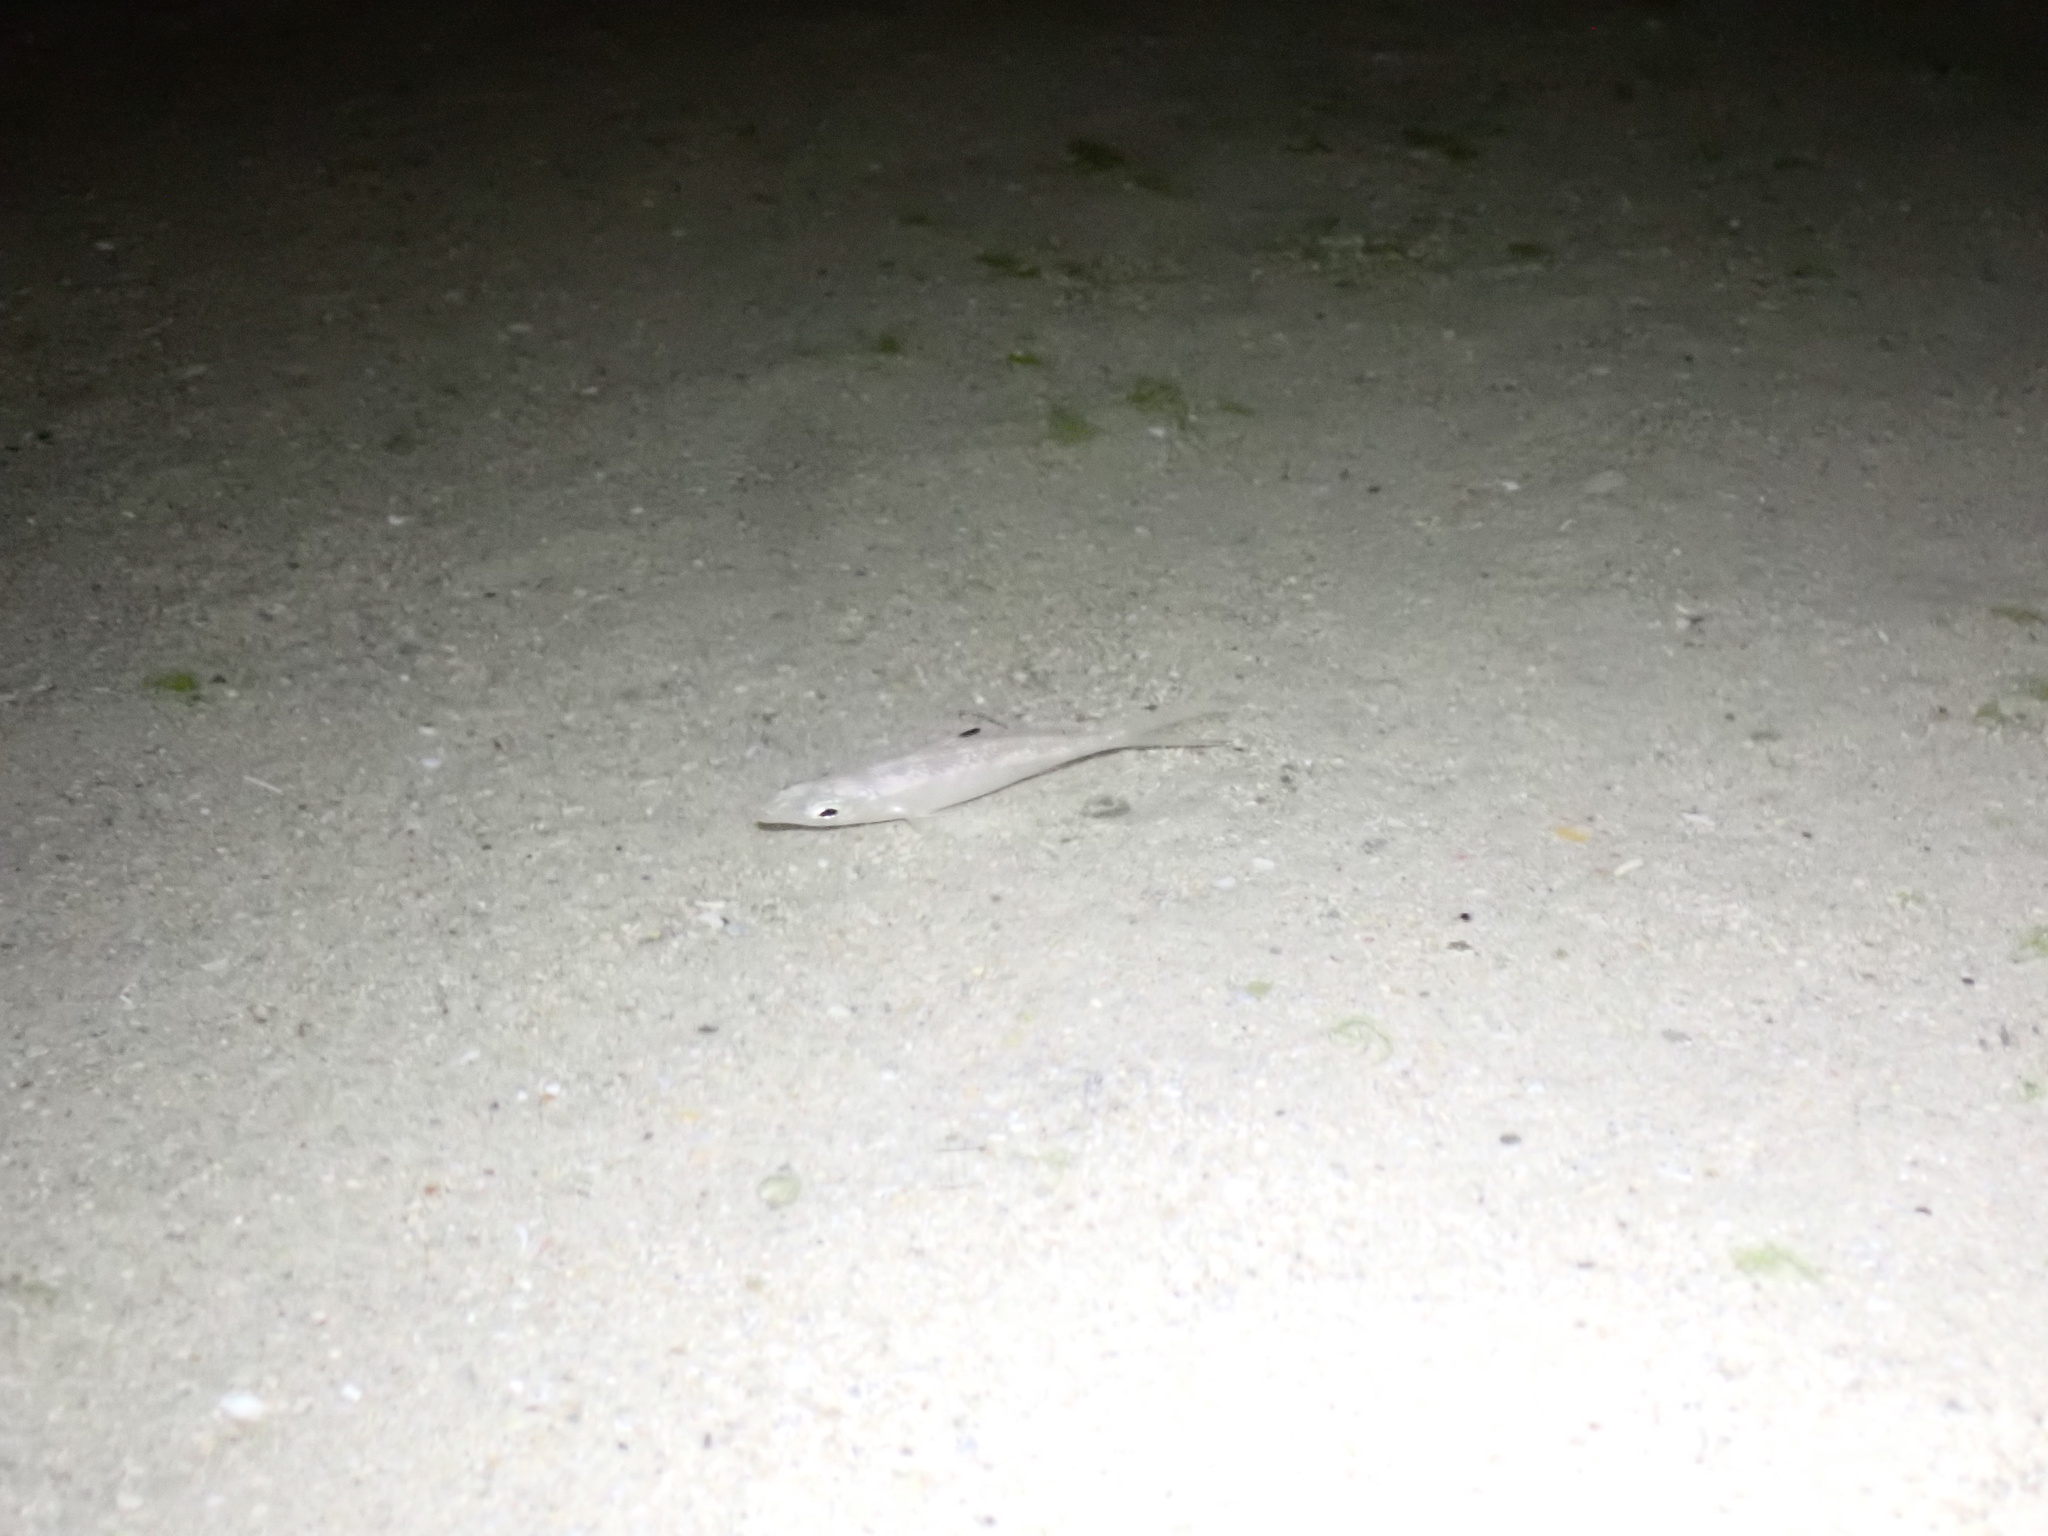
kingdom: Animalia
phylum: Chordata
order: Perciformes
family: Gerreidae
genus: Gerres
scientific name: Gerres oyena
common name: Common silver-biddy
